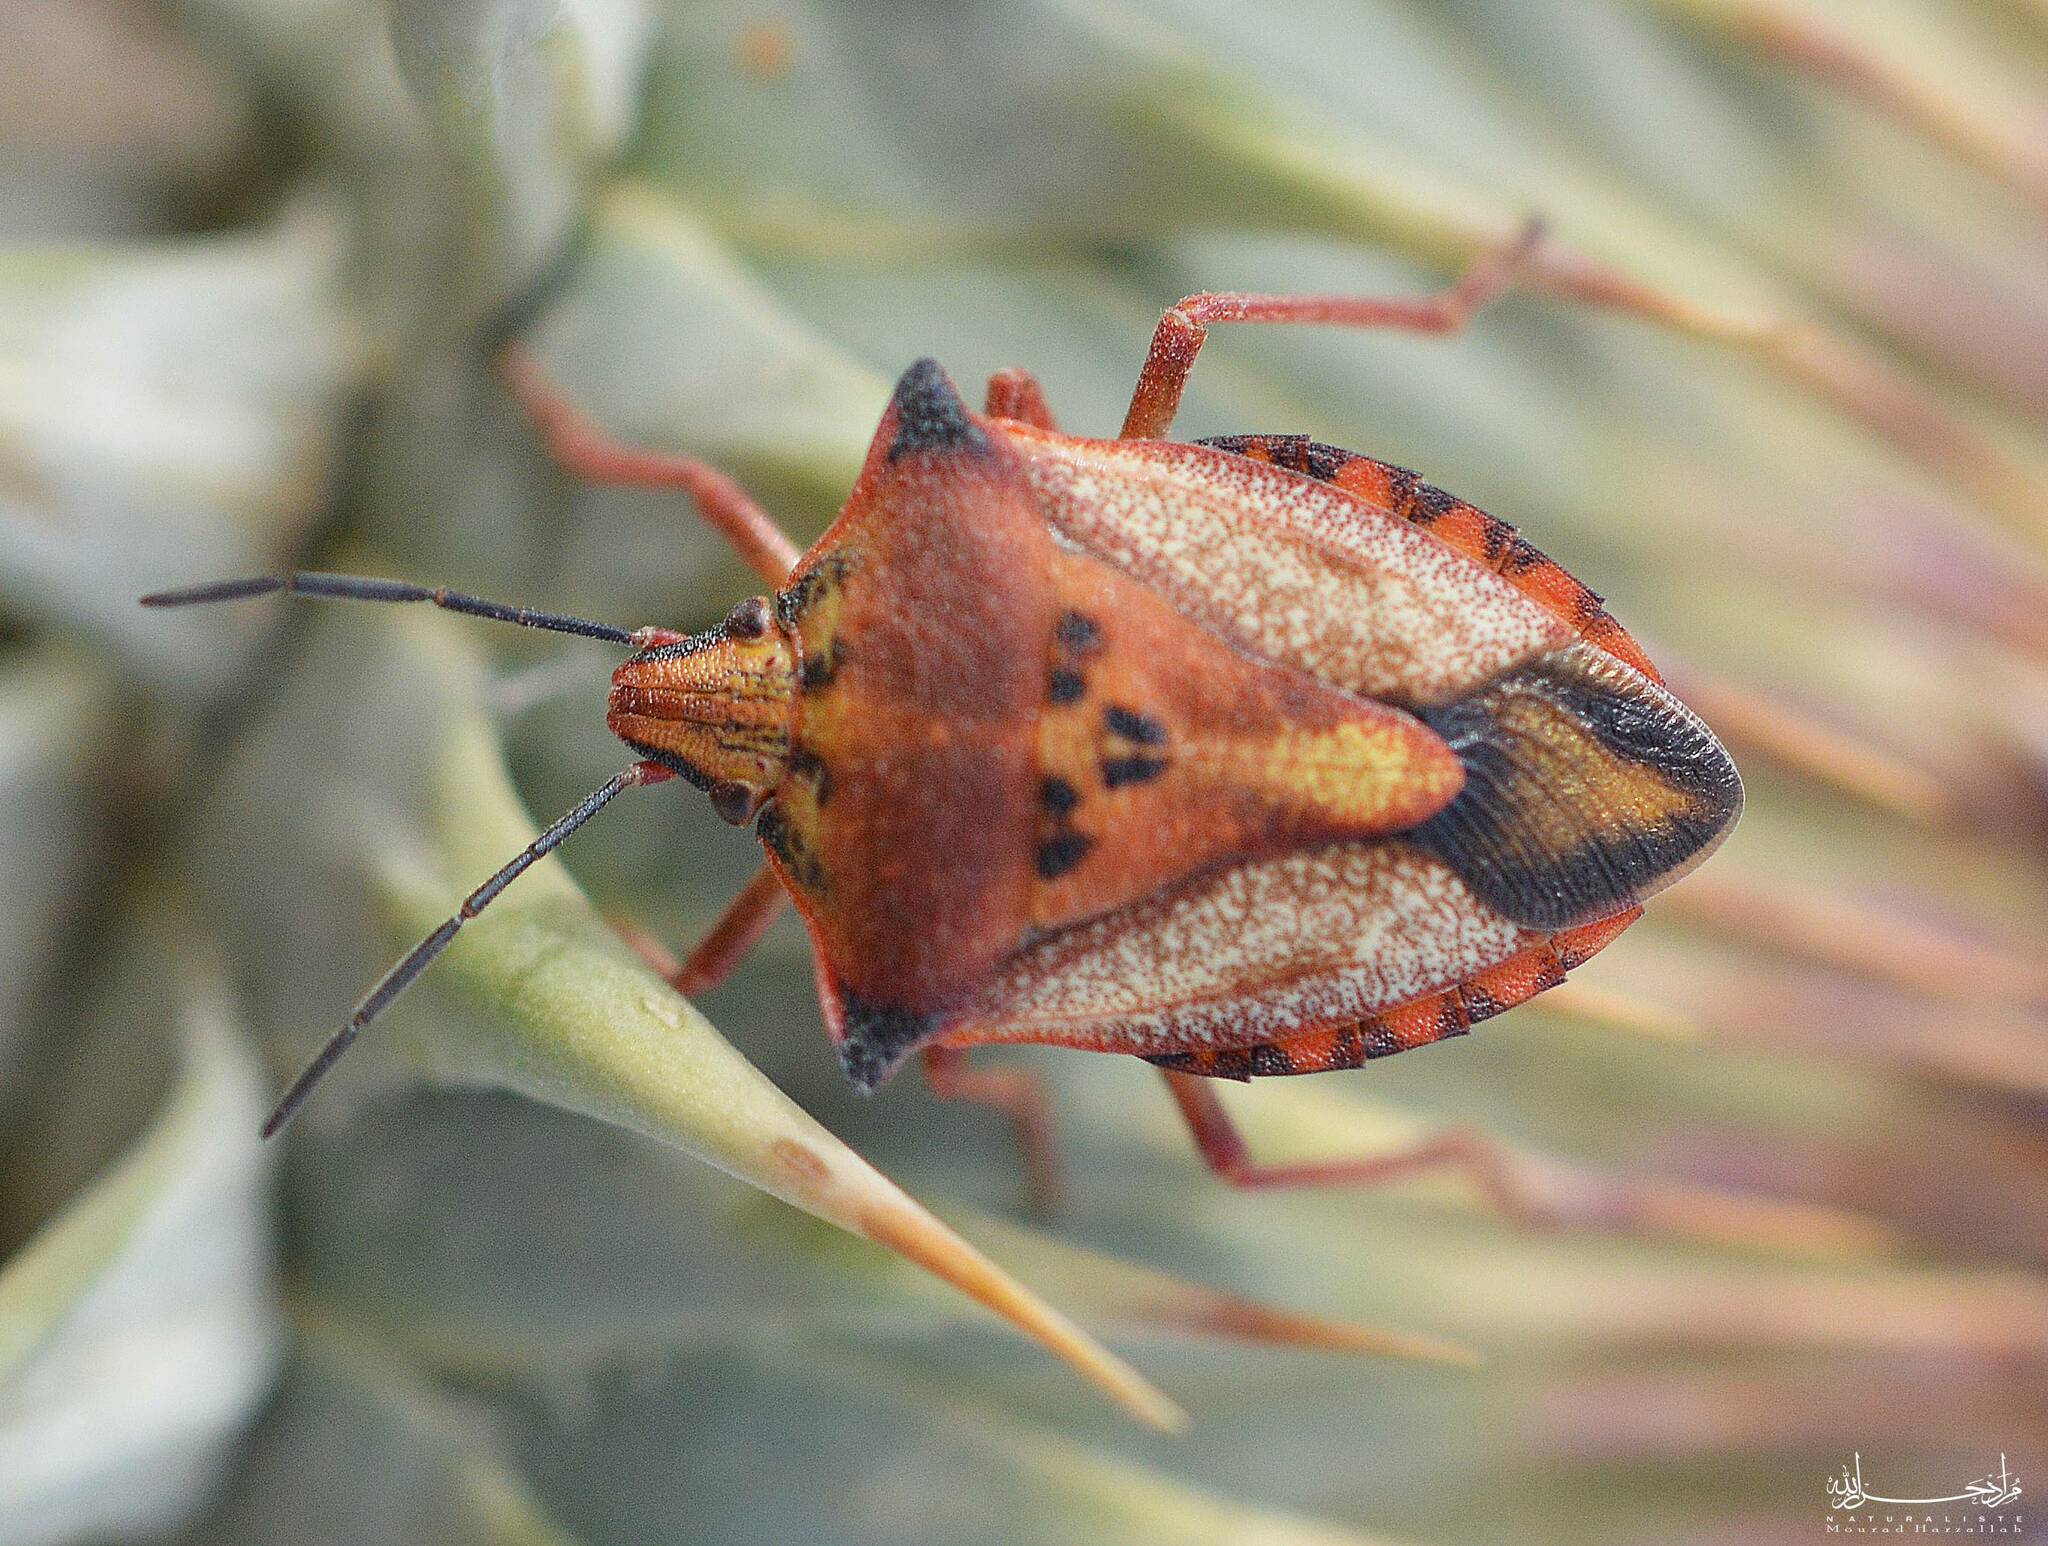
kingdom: Animalia
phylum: Arthropoda
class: Insecta
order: Hemiptera
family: Pentatomidae
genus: Carpocoris
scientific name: Carpocoris mediterraneus
